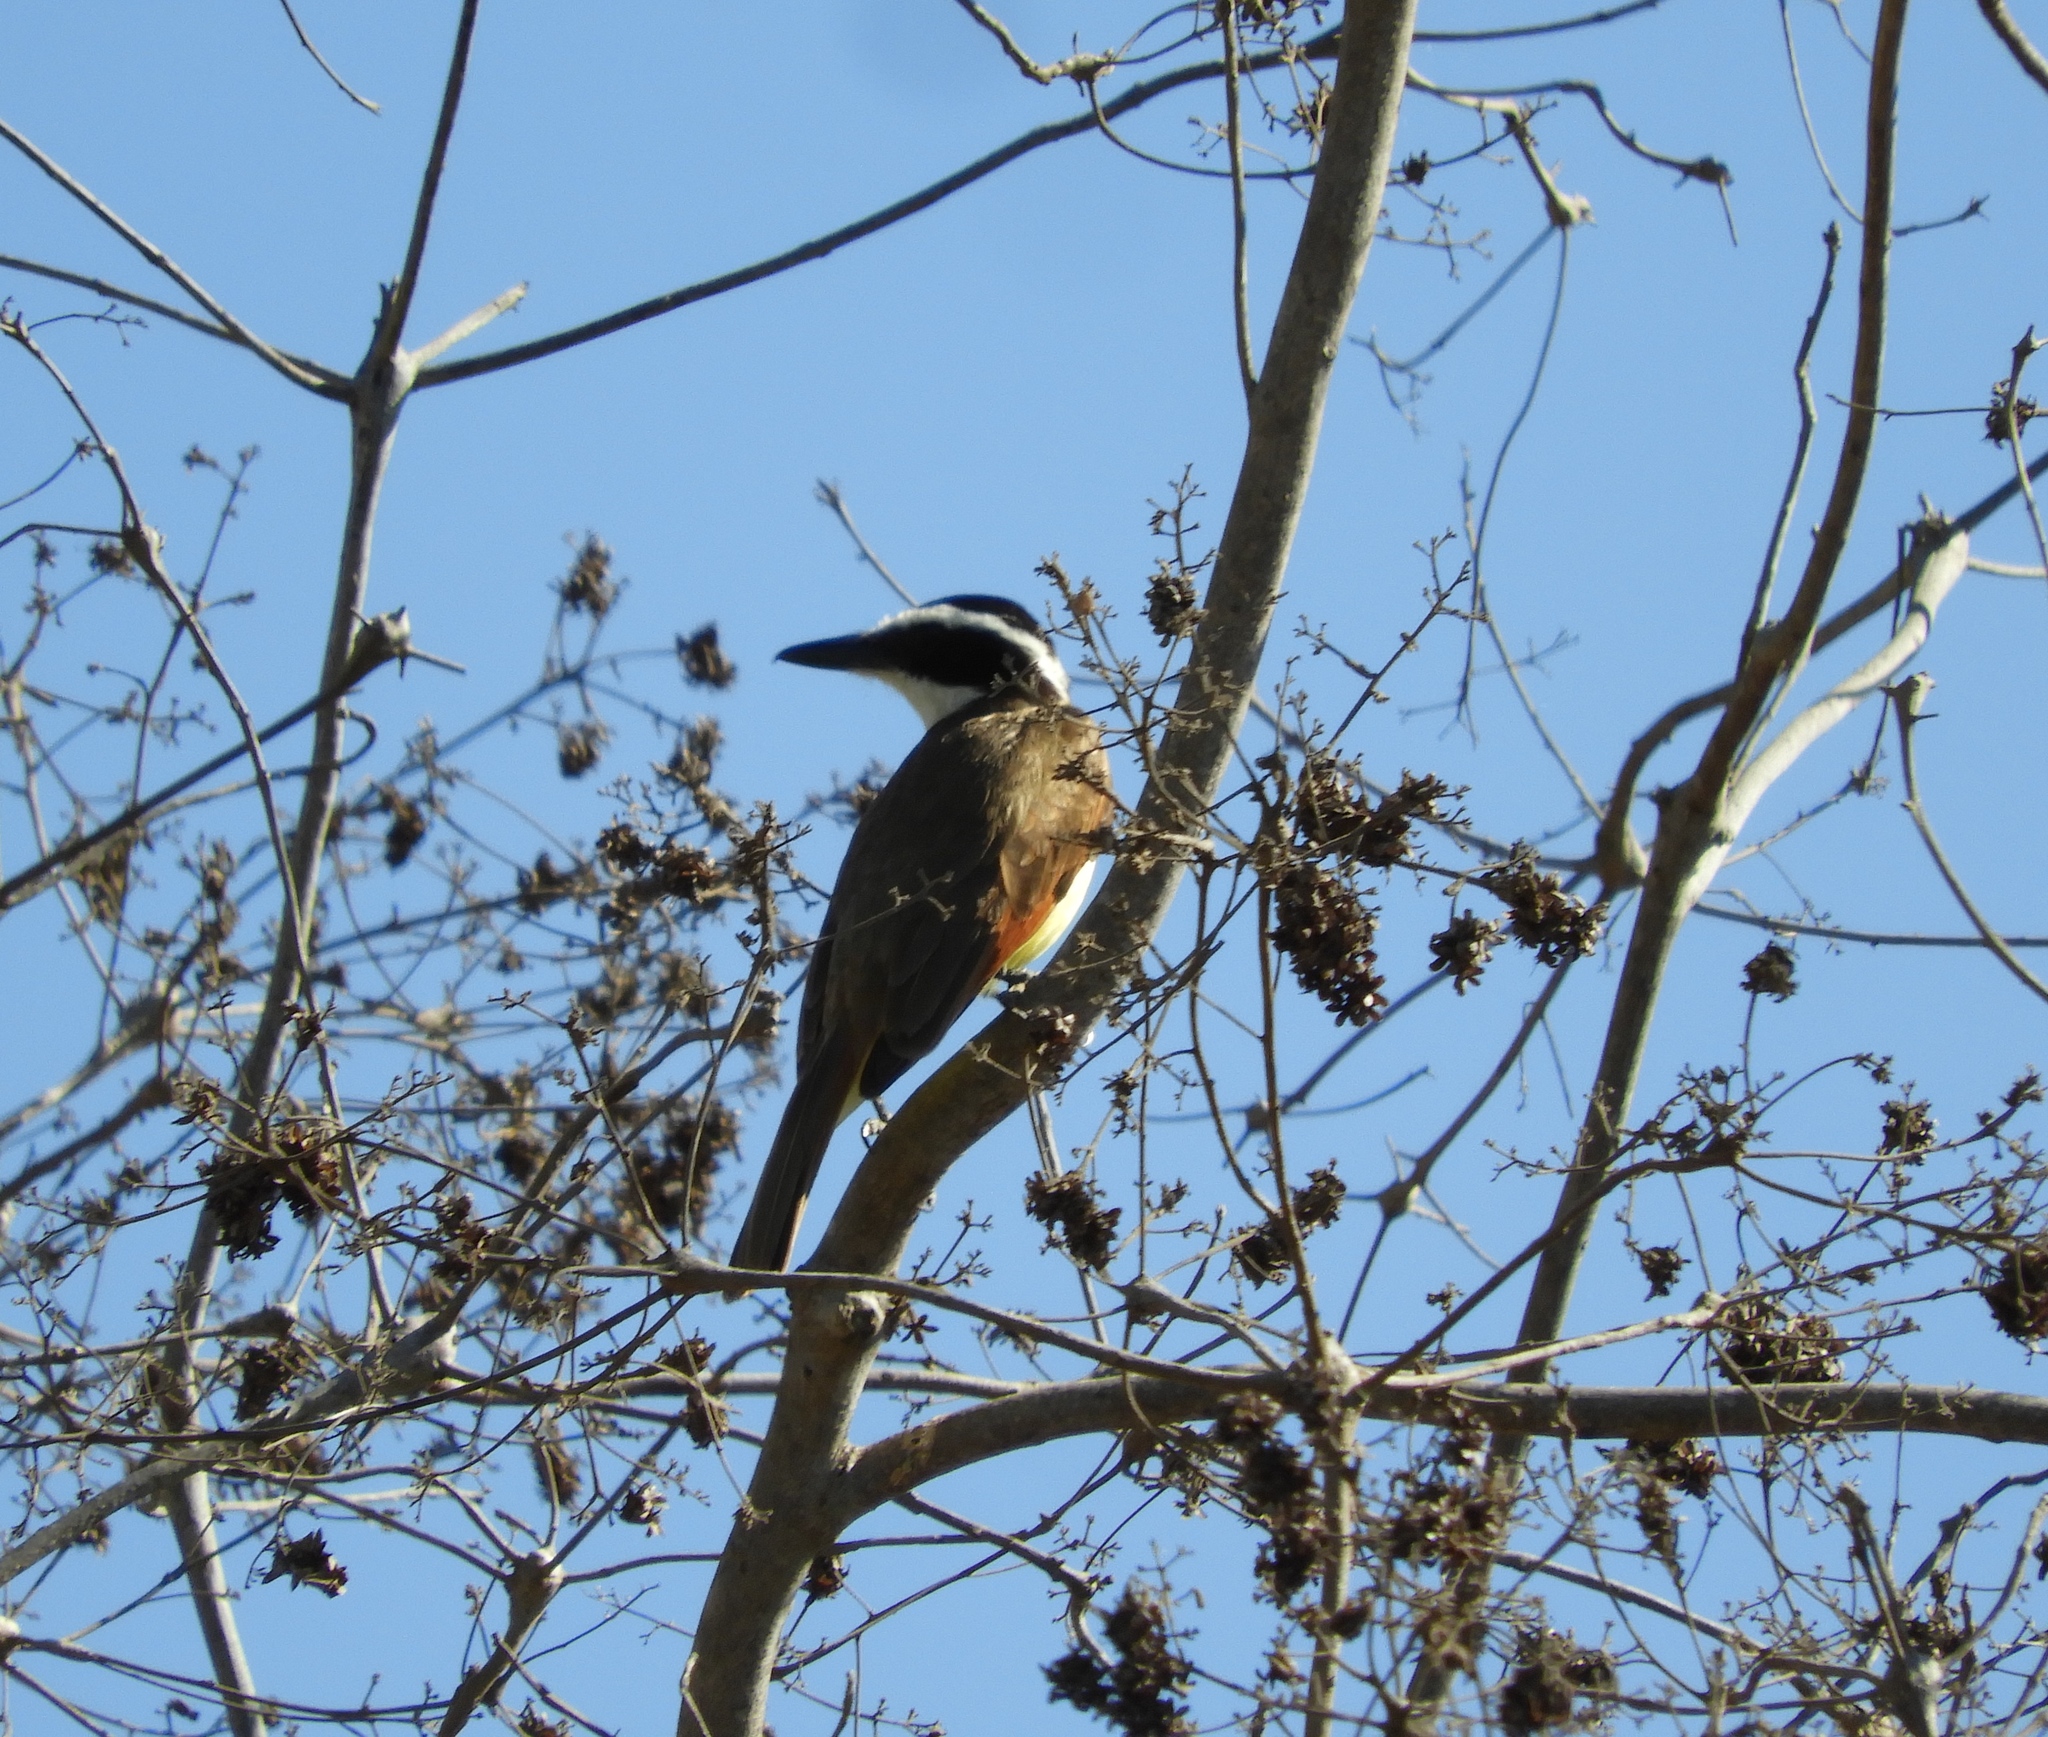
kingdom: Animalia
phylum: Chordata
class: Aves
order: Passeriformes
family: Tyrannidae
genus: Pitangus
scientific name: Pitangus sulphuratus
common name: Great kiskadee
